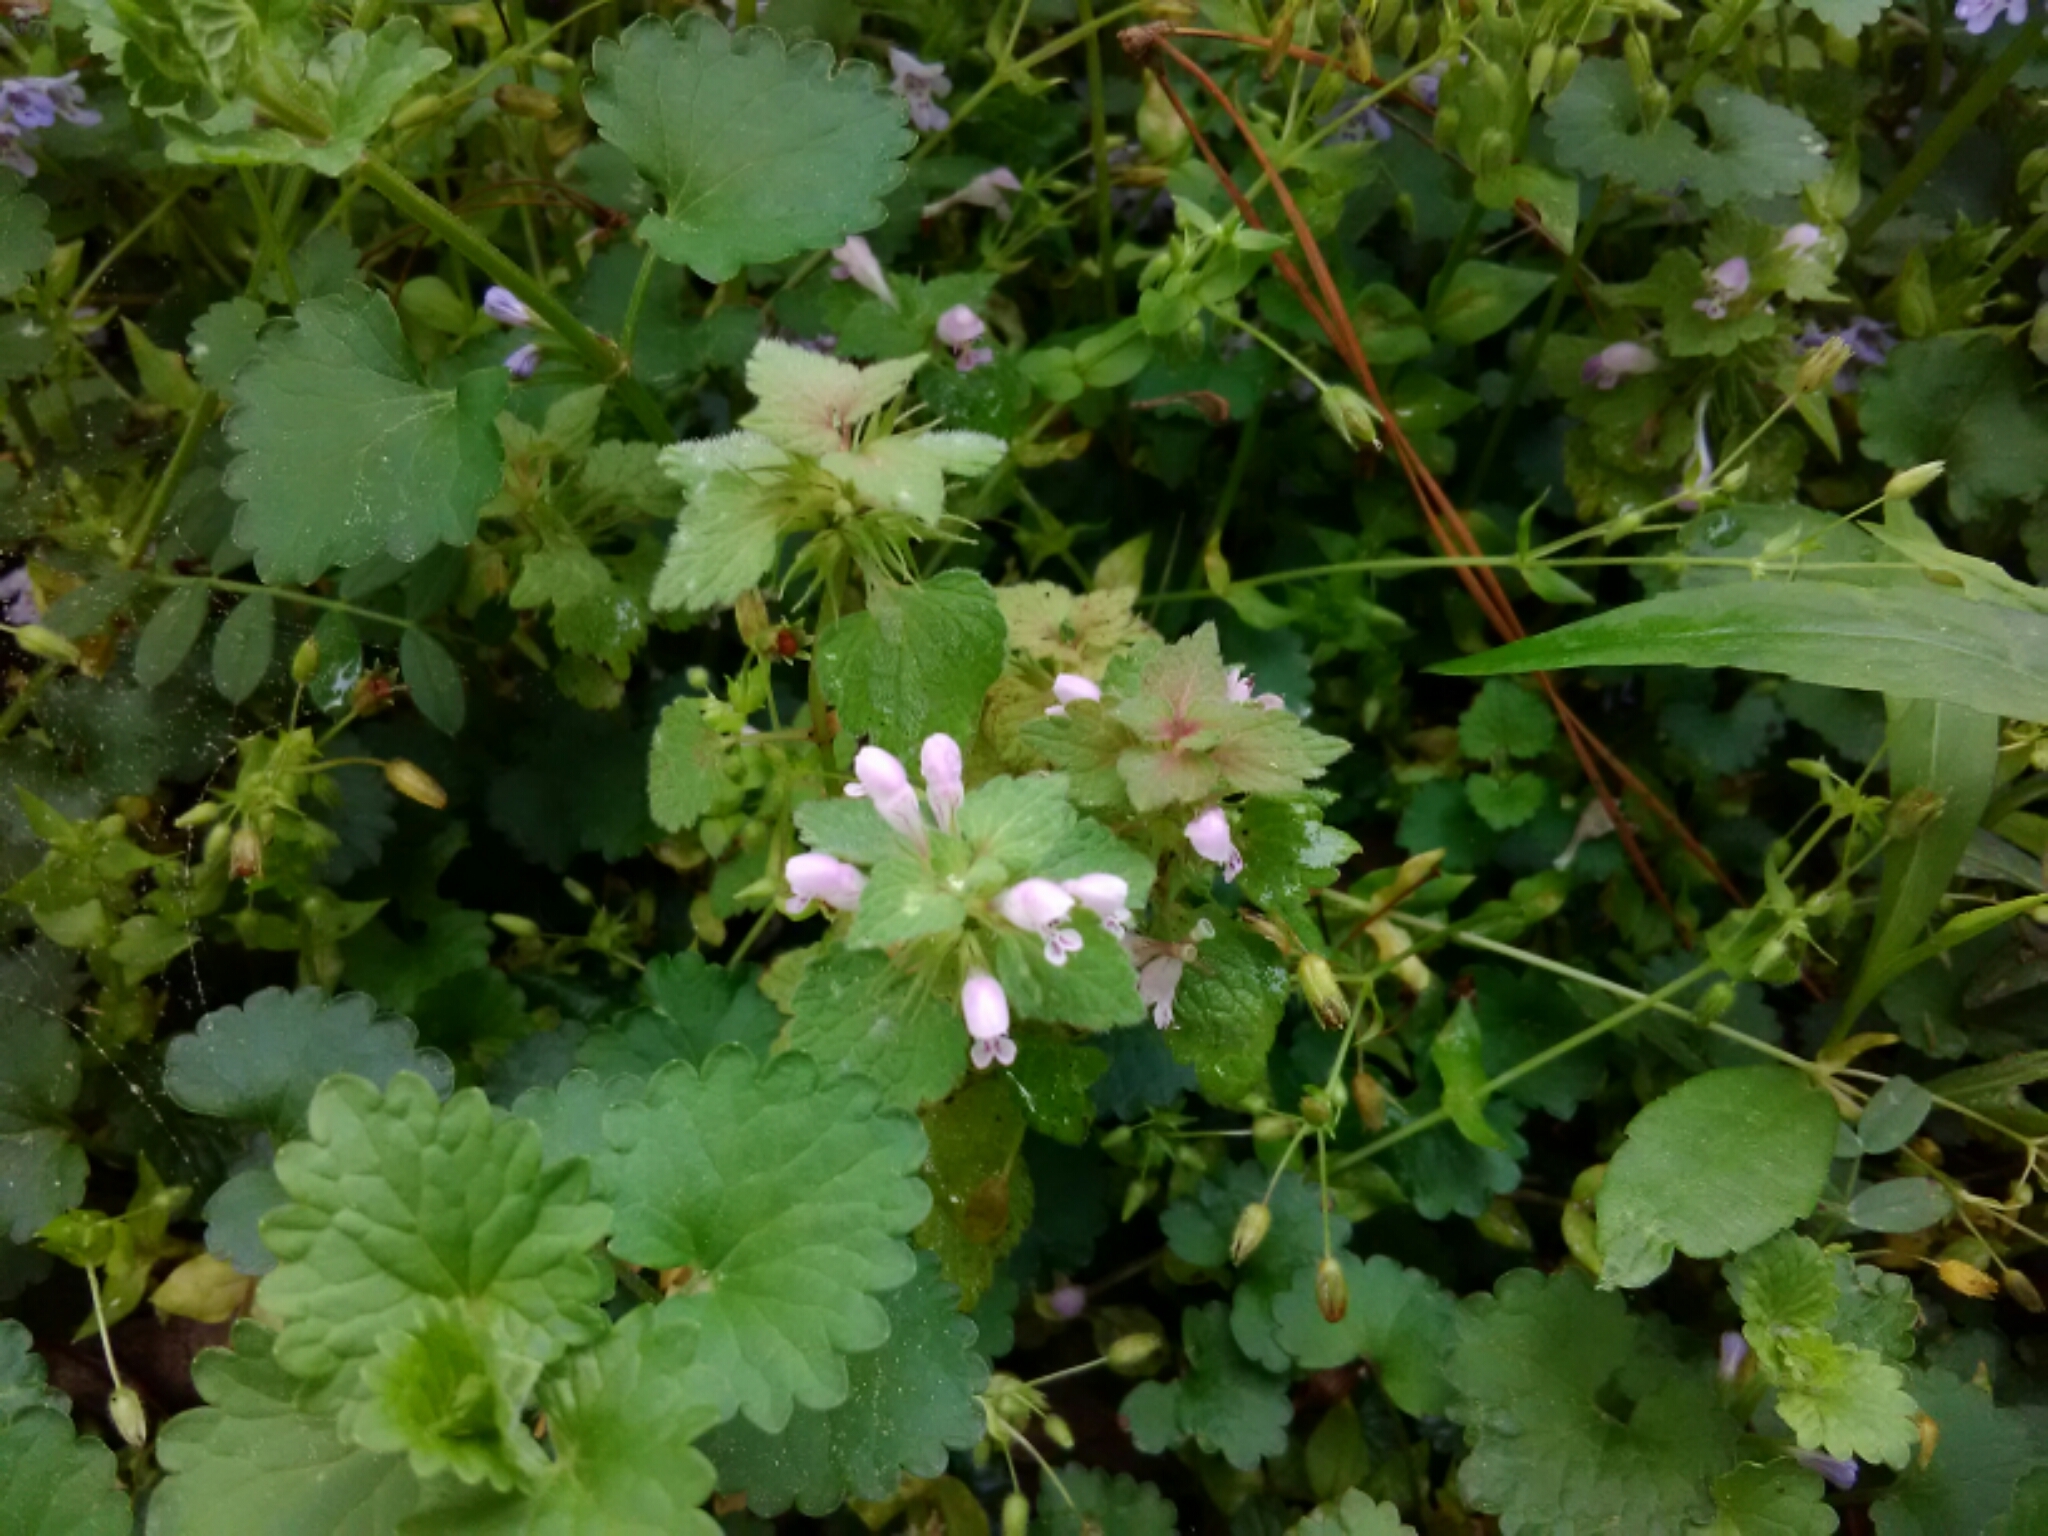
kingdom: Plantae
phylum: Tracheophyta
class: Magnoliopsida
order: Lamiales
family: Lamiaceae
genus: Lamium
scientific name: Lamium purpureum
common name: Red dead-nettle
